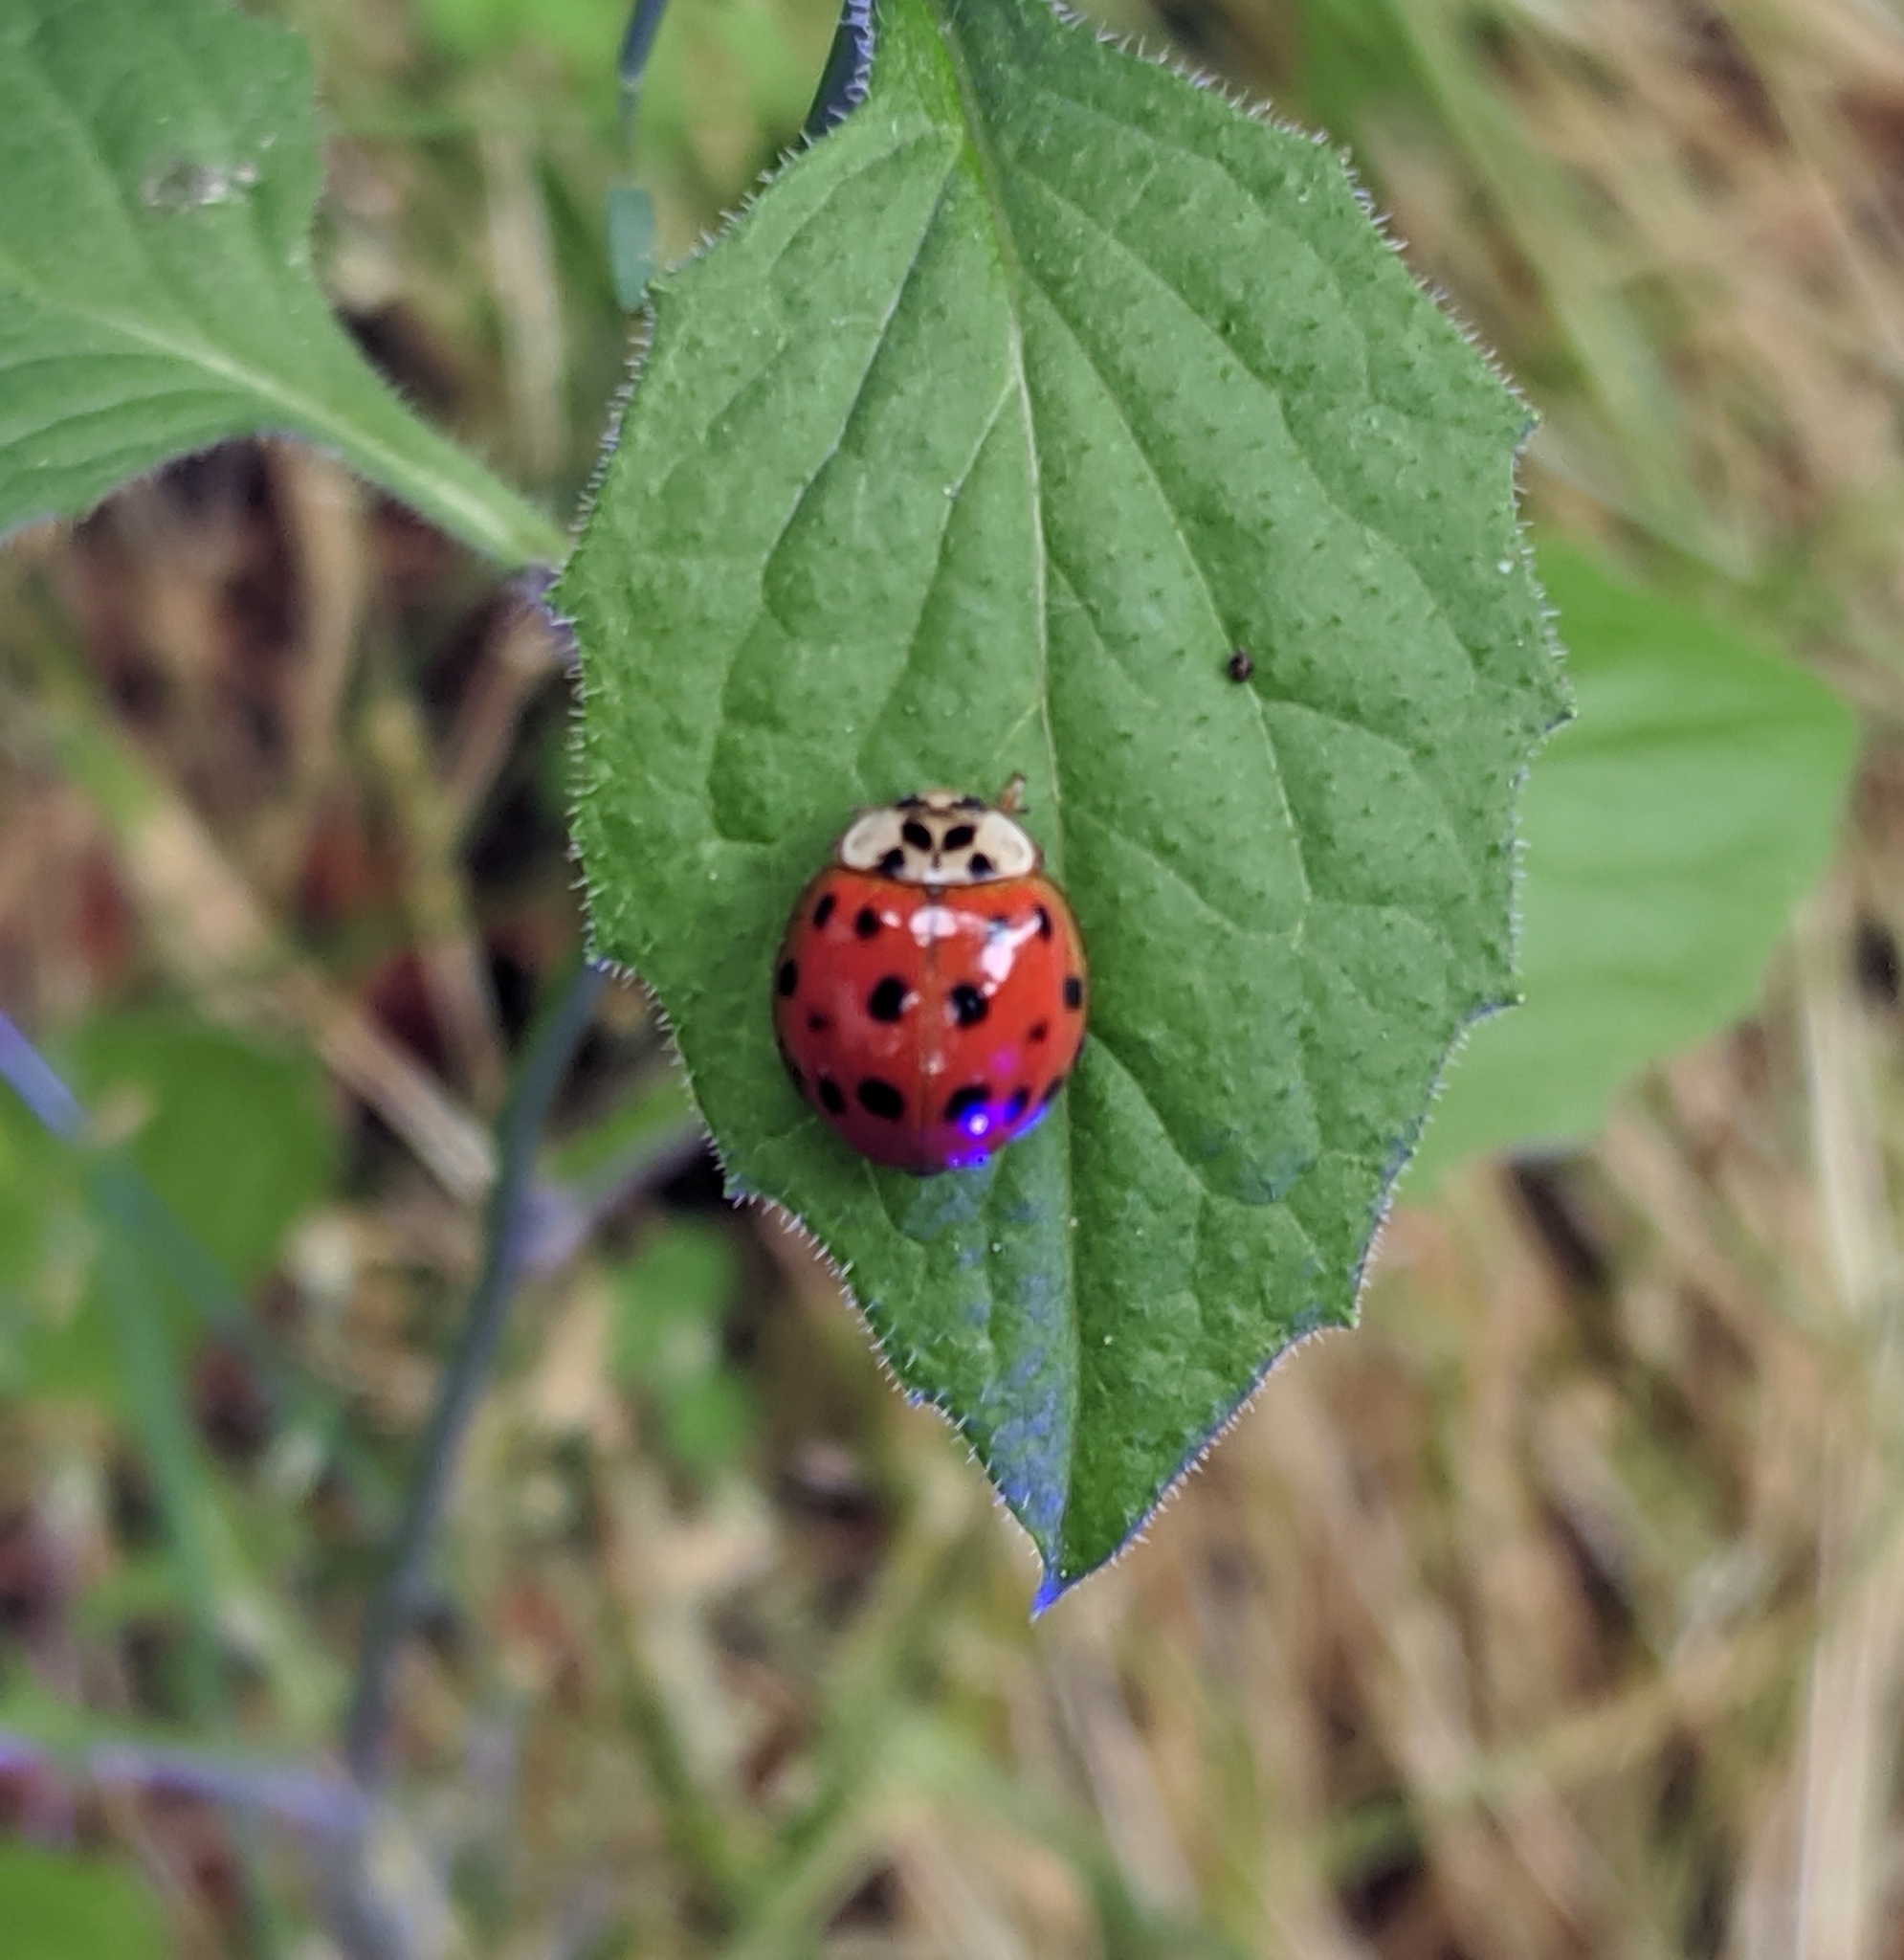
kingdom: Animalia
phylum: Arthropoda
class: Insecta
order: Coleoptera
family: Coccinellidae
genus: Harmonia
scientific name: Harmonia axyridis
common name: Harlequin ladybird
